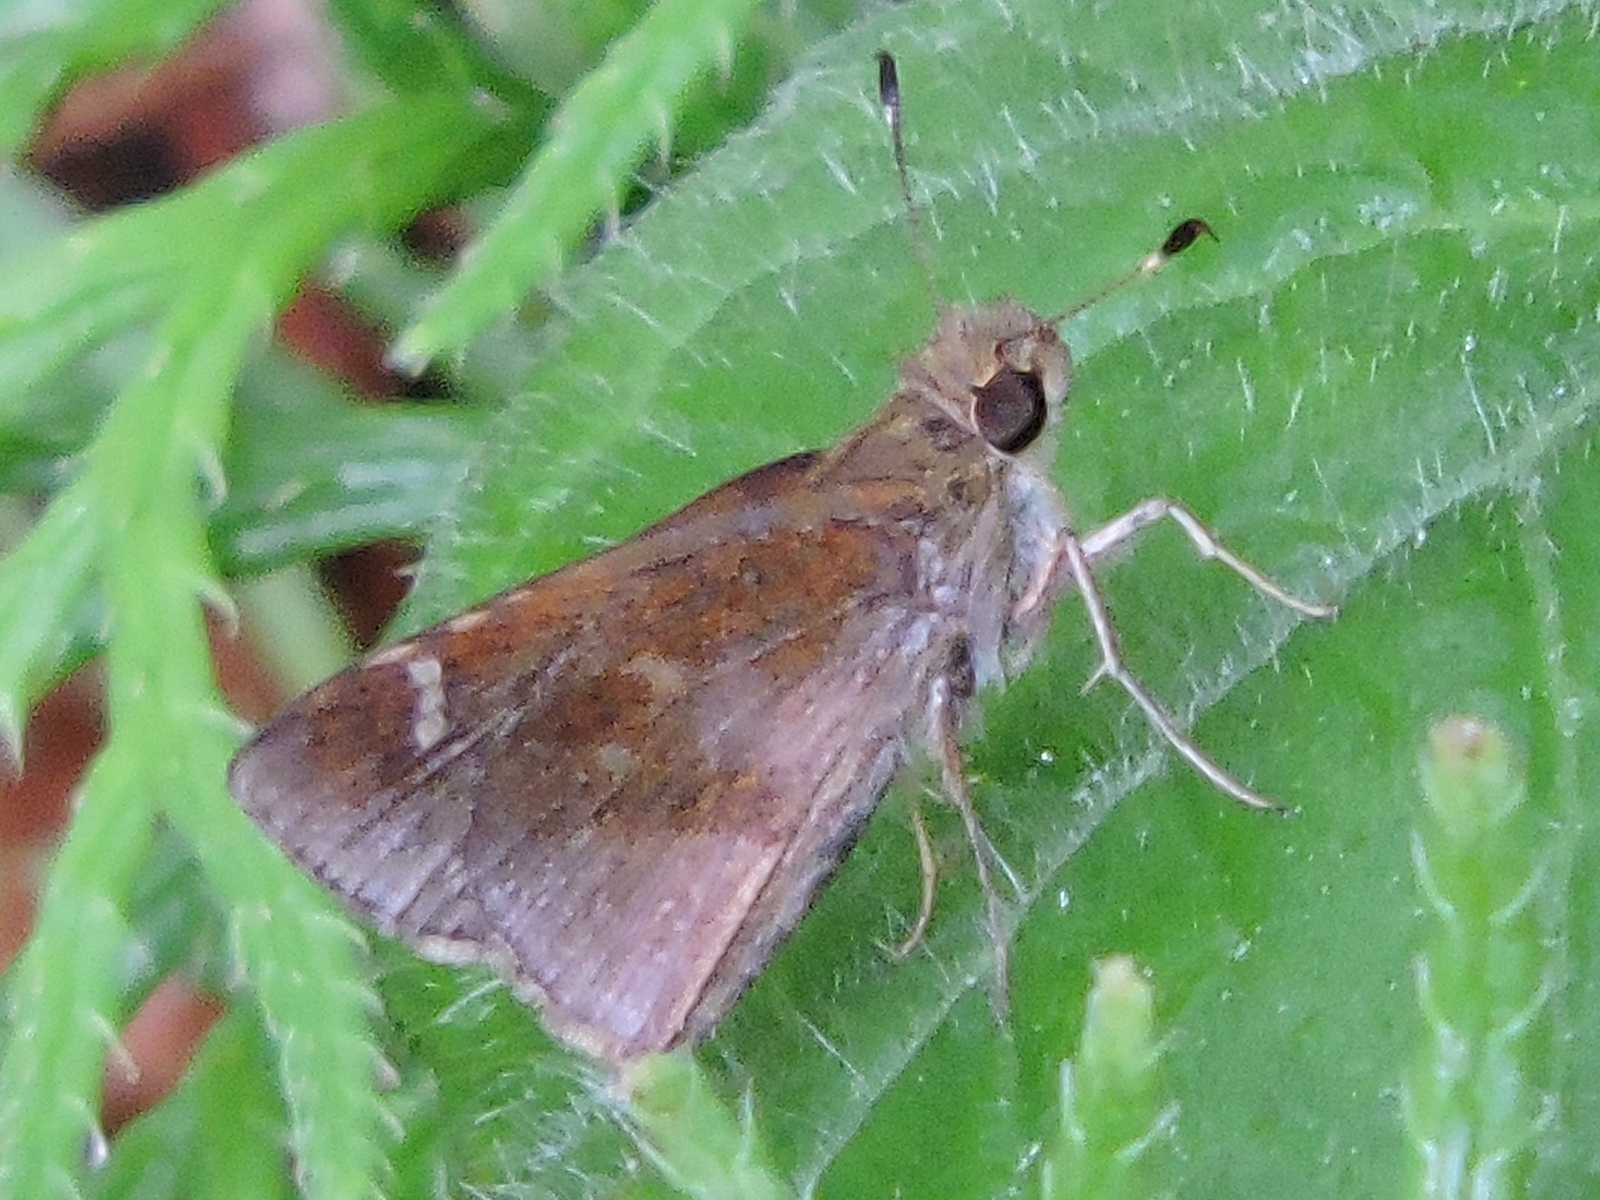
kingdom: Animalia
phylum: Arthropoda
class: Insecta
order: Lepidoptera
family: Hesperiidae
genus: Lerema
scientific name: Lerema accius
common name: Clouded skipper
